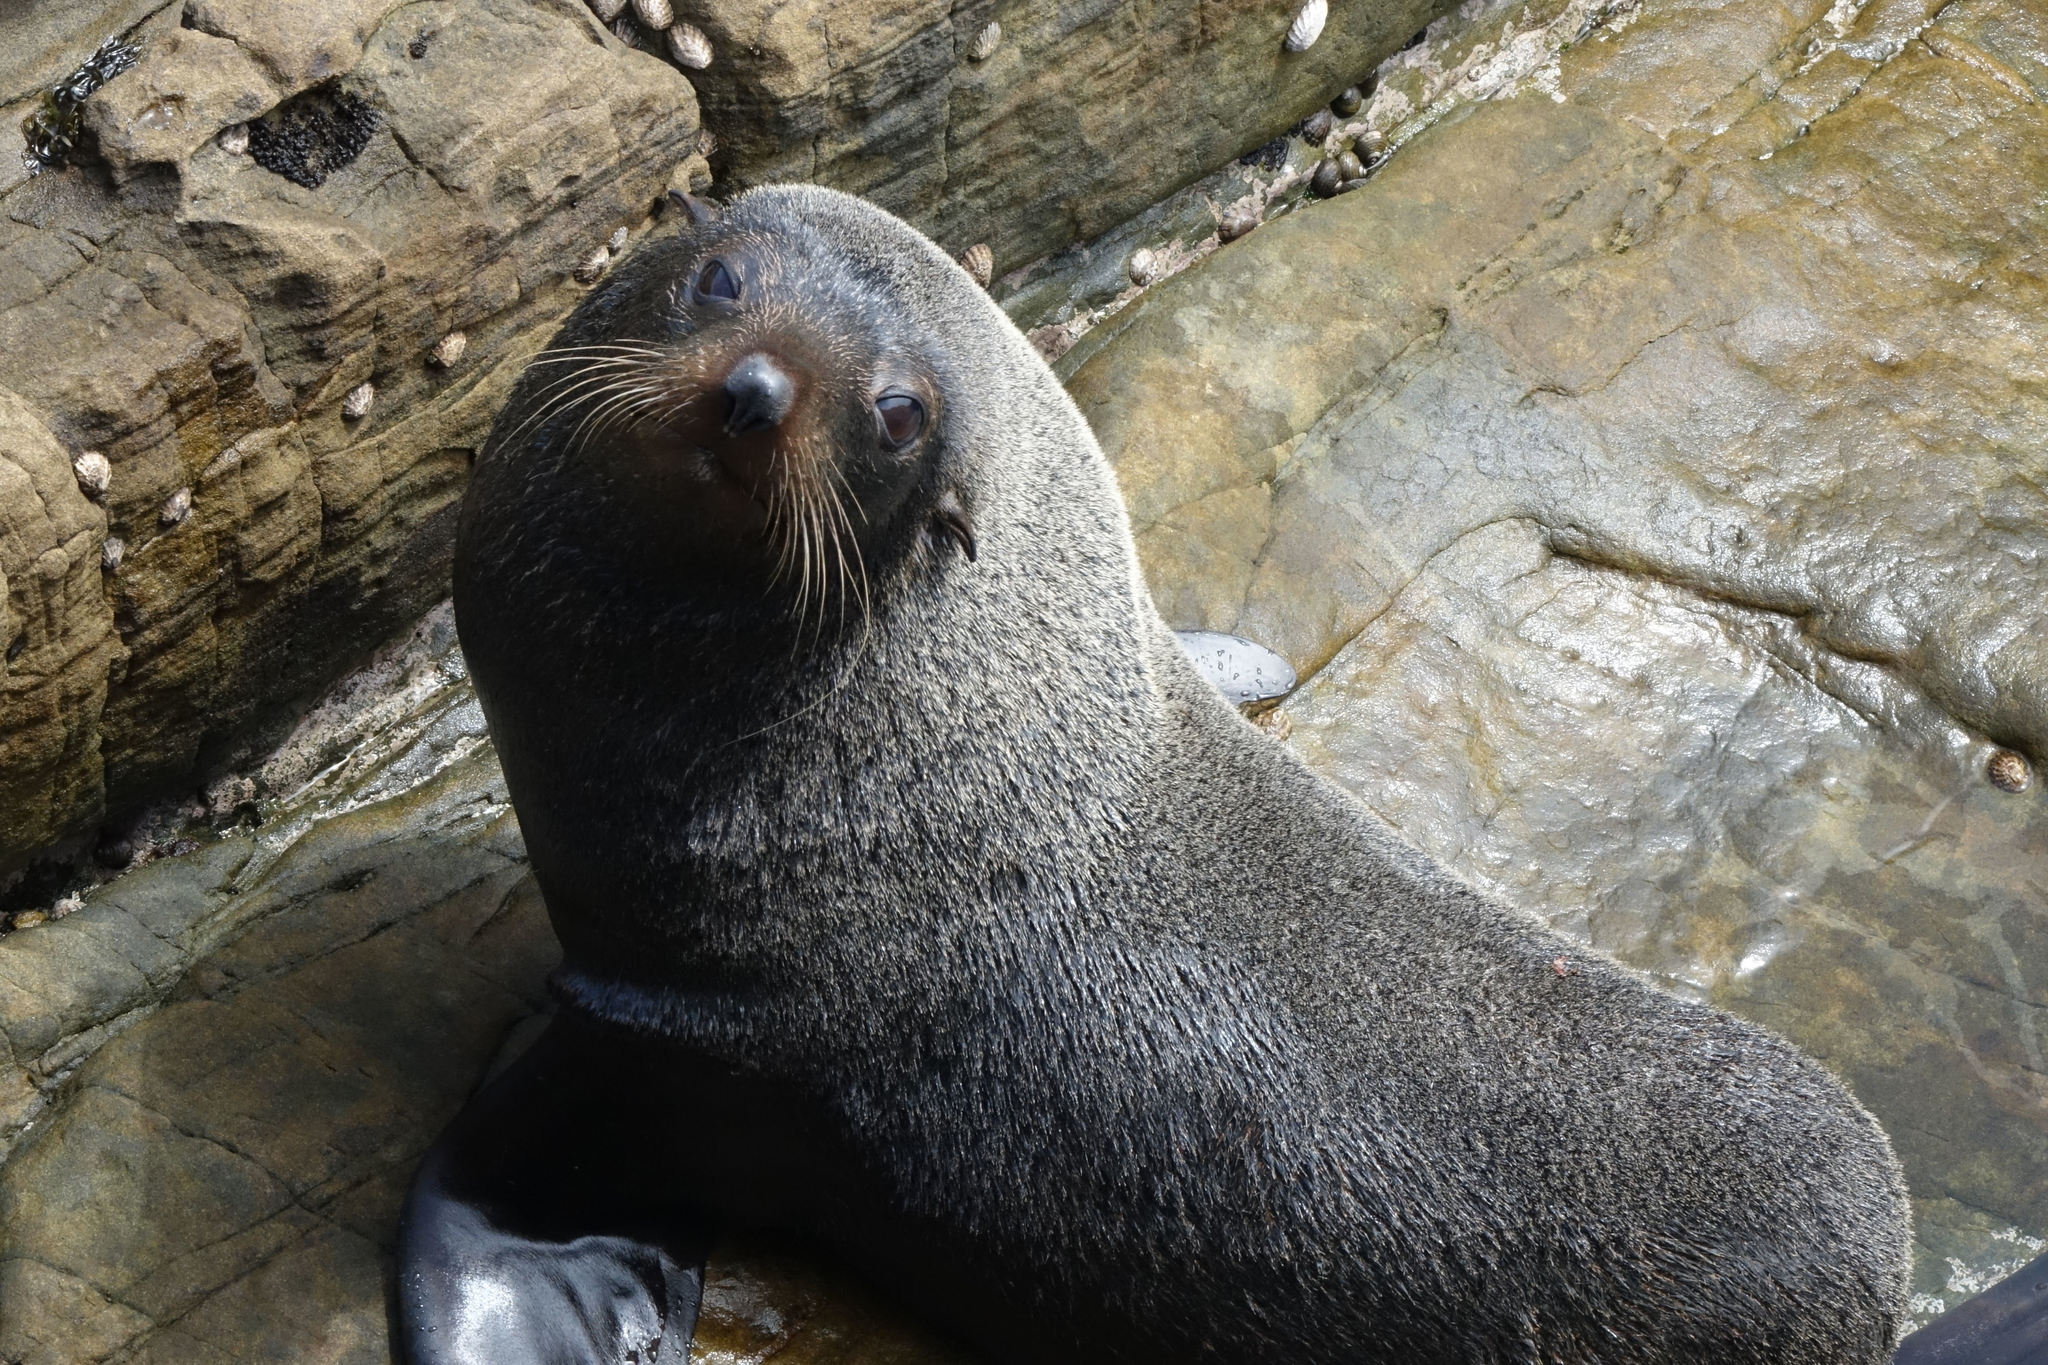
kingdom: Animalia
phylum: Chordata
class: Mammalia
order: Carnivora
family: Otariidae
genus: Arctocephalus
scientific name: Arctocephalus forsteri
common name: New zealand fur seal
